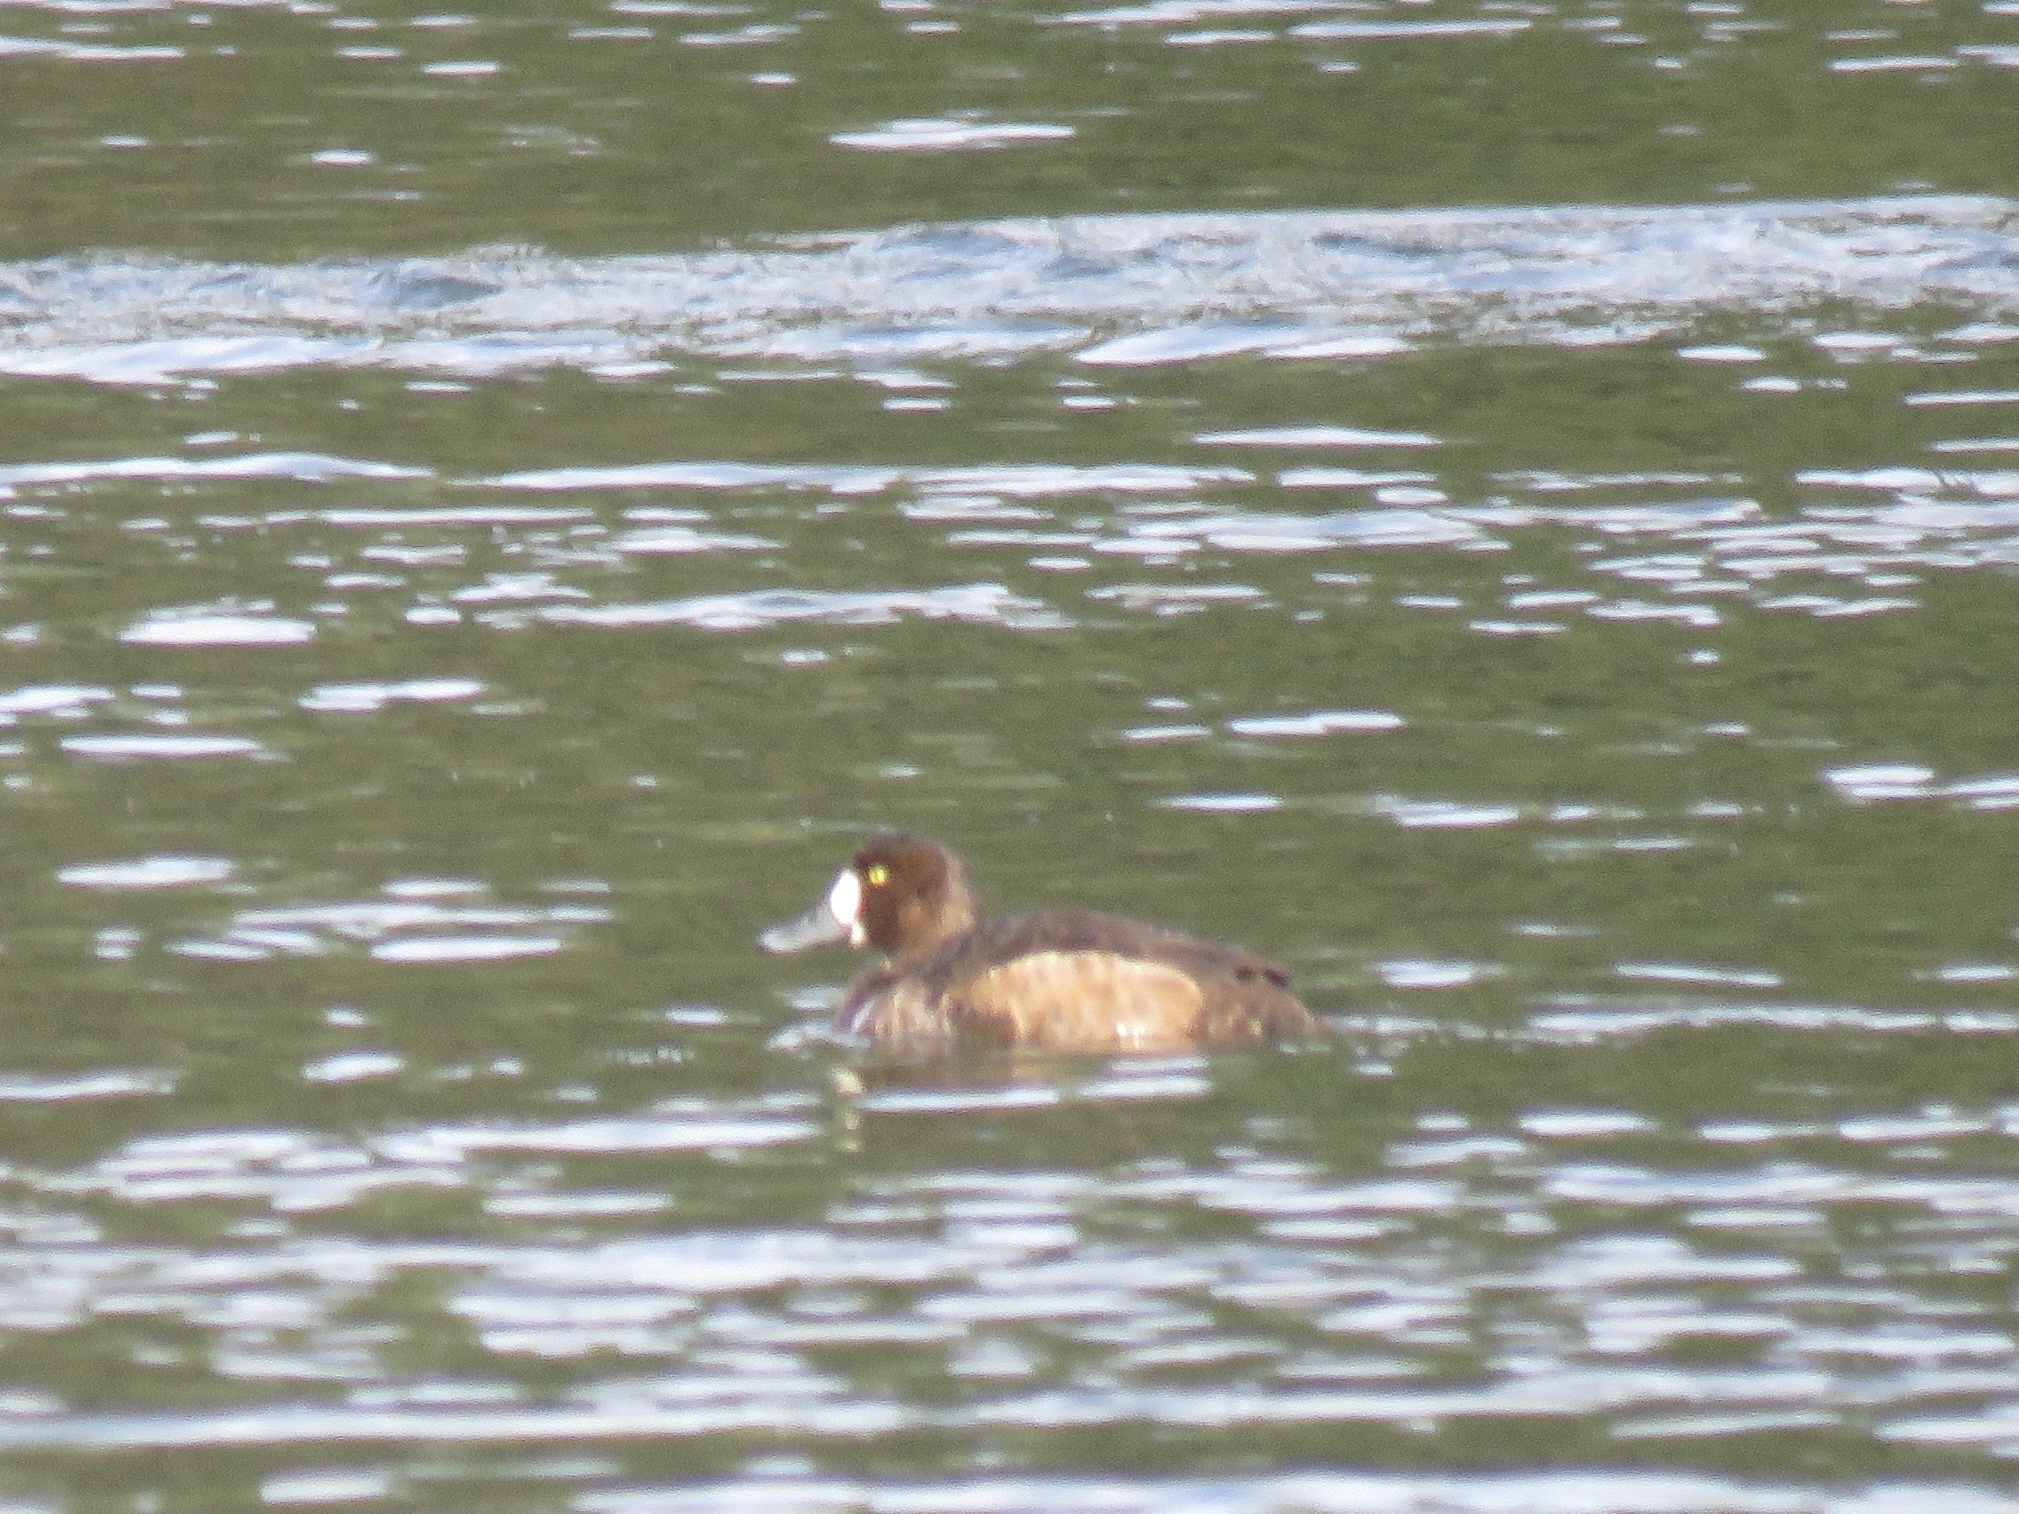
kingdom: Animalia
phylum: Chordata
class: Aves
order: Anseriformes
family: Anatidae
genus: Aythya
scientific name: Aythya marila
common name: Greater scaup
